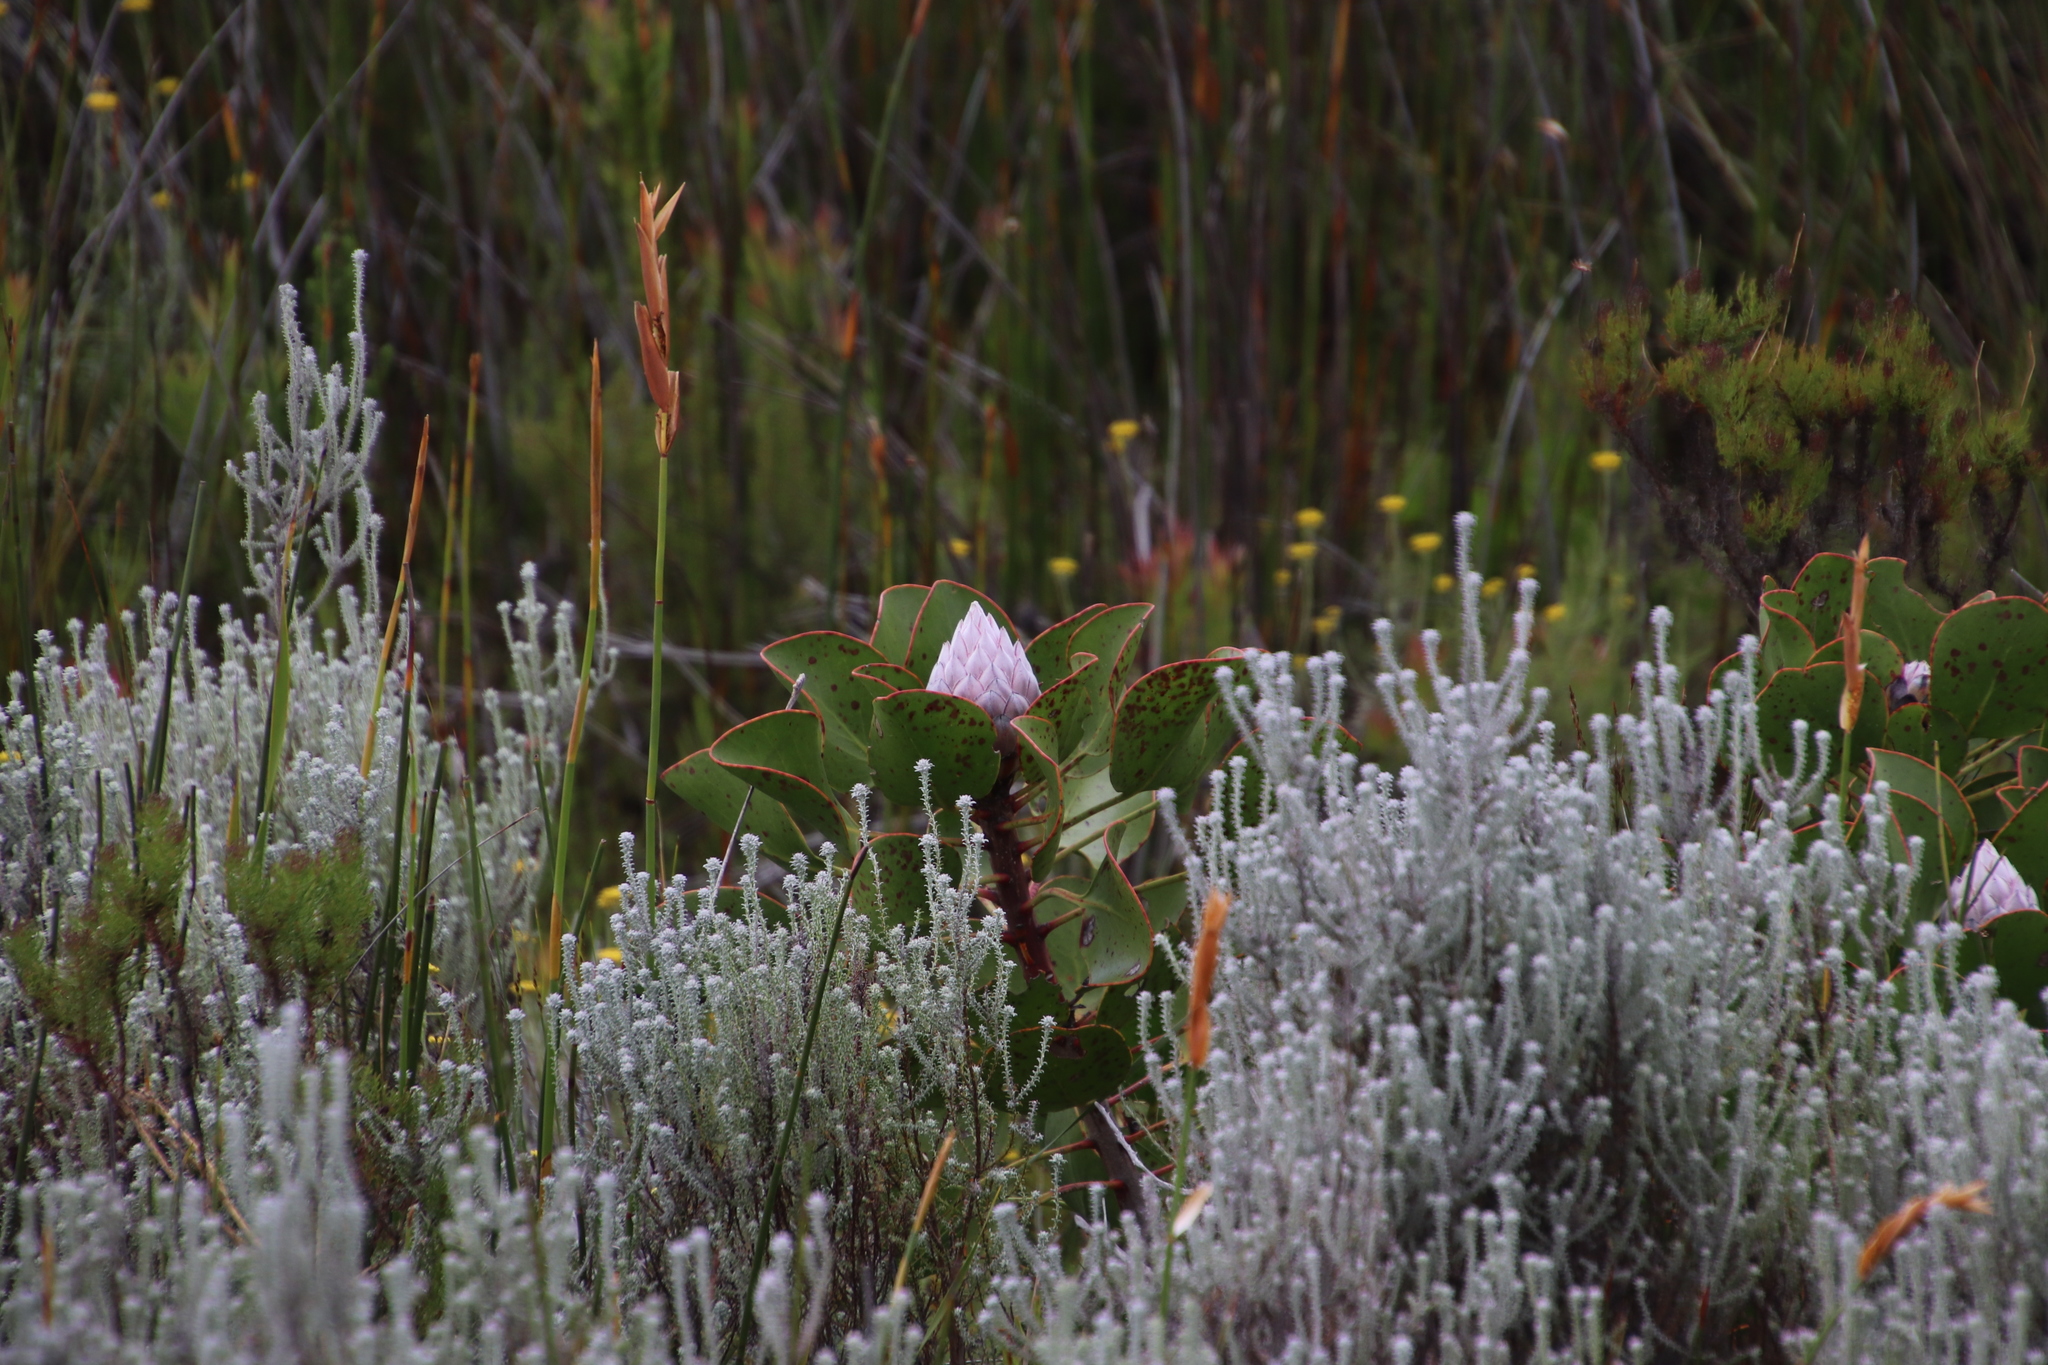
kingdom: Plantae
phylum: Tracheophyta
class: Magnoliopsida
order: Proteales
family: Proteaceae
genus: Protea
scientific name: Protea cynaroides
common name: King protea
